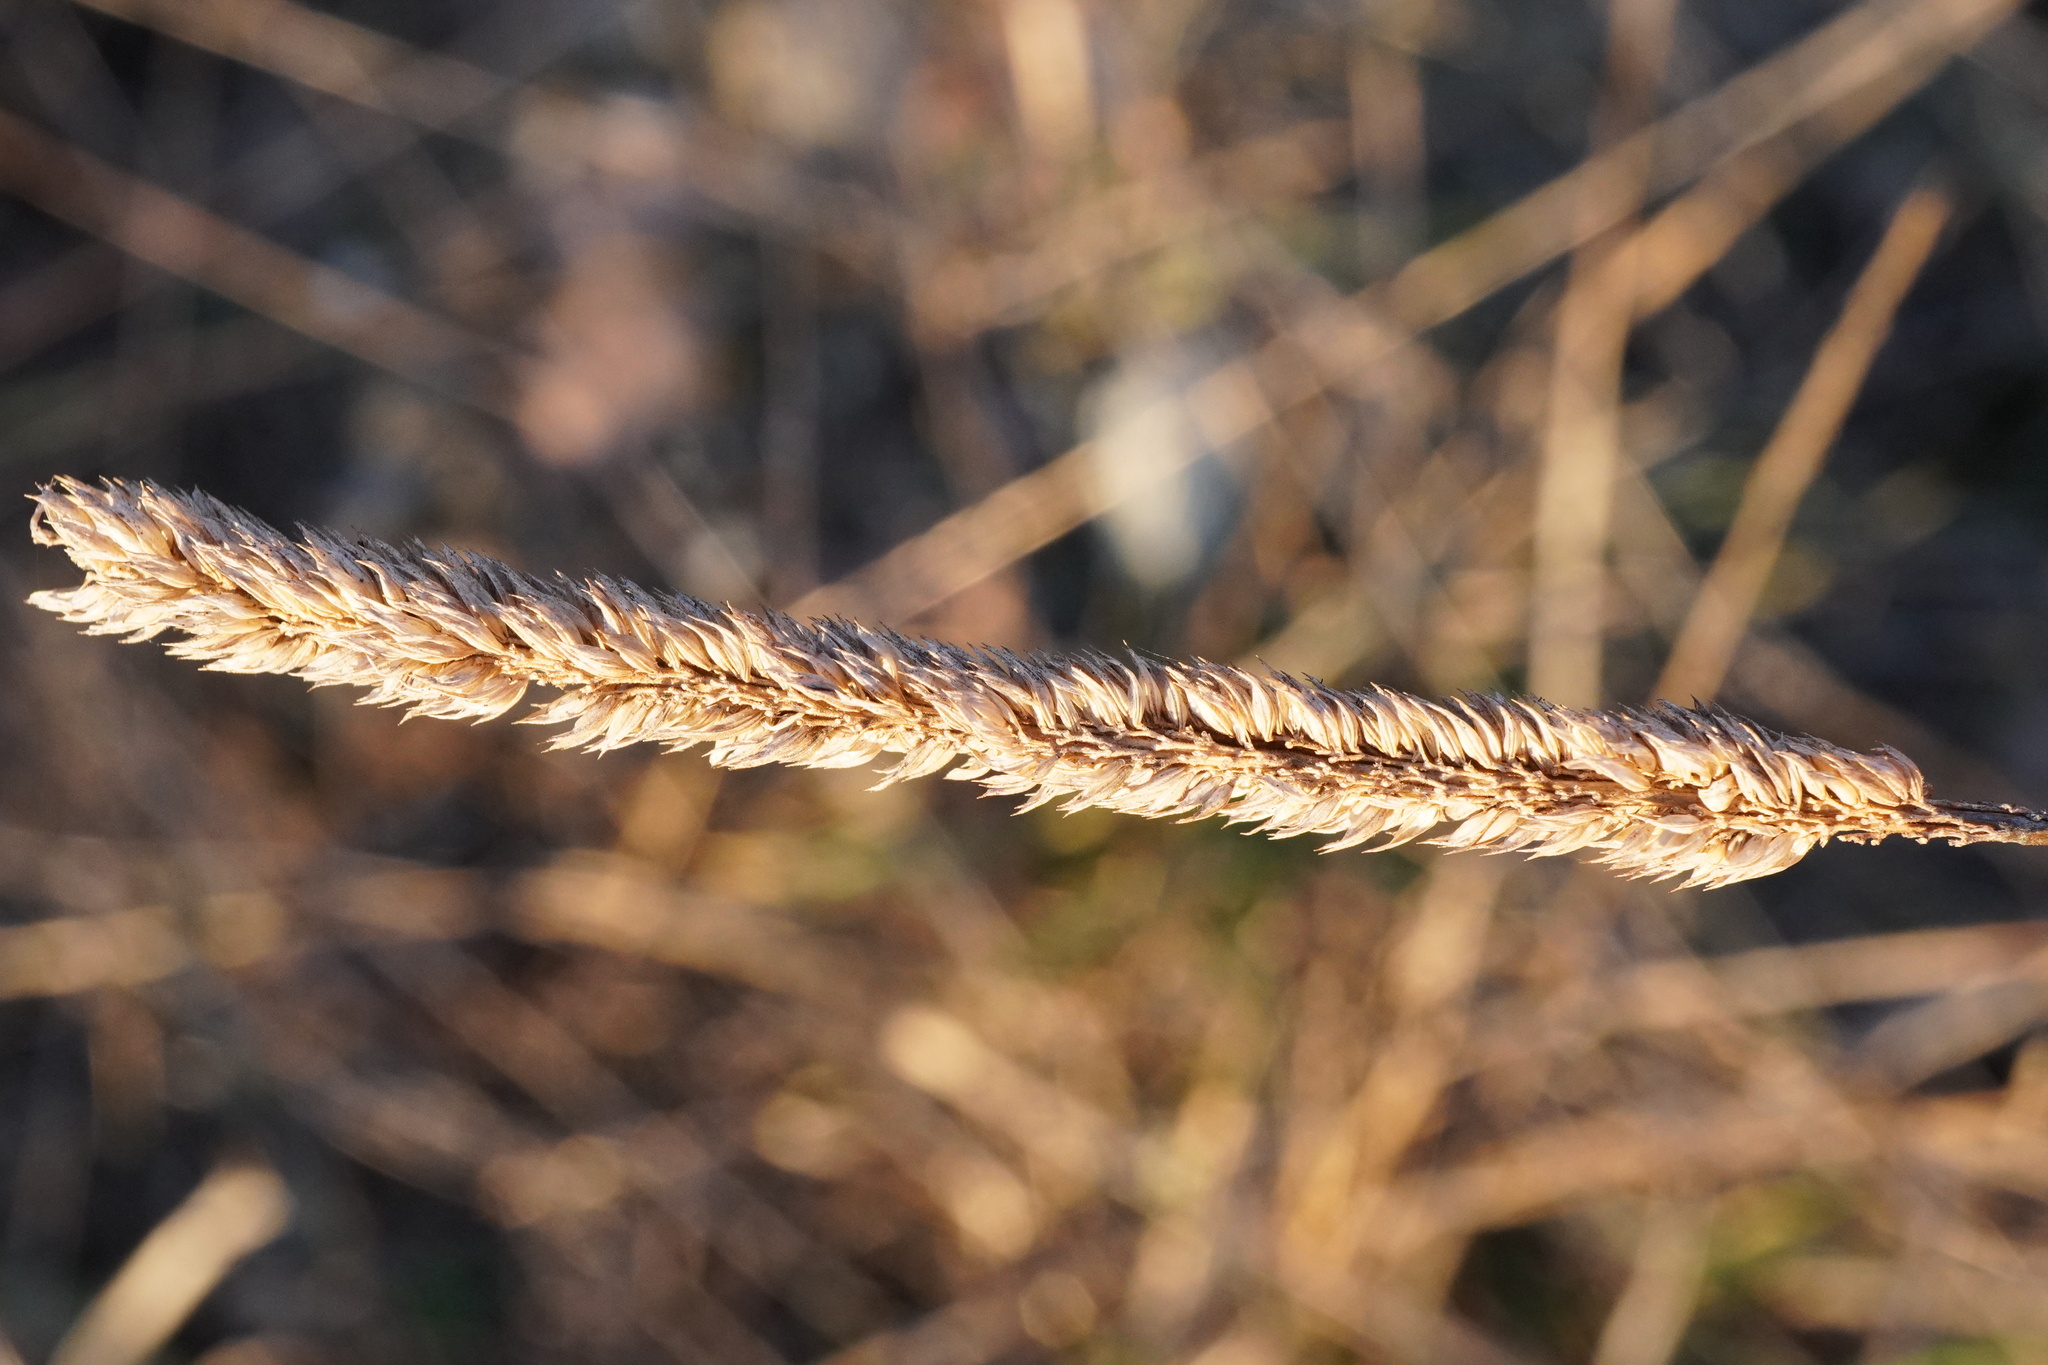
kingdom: Plantae
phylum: Tracheophyta
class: Liliopsida
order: Poales
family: Poaceae
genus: Phleum
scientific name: Phleum phleoides
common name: Purple-stem cat's-tail
